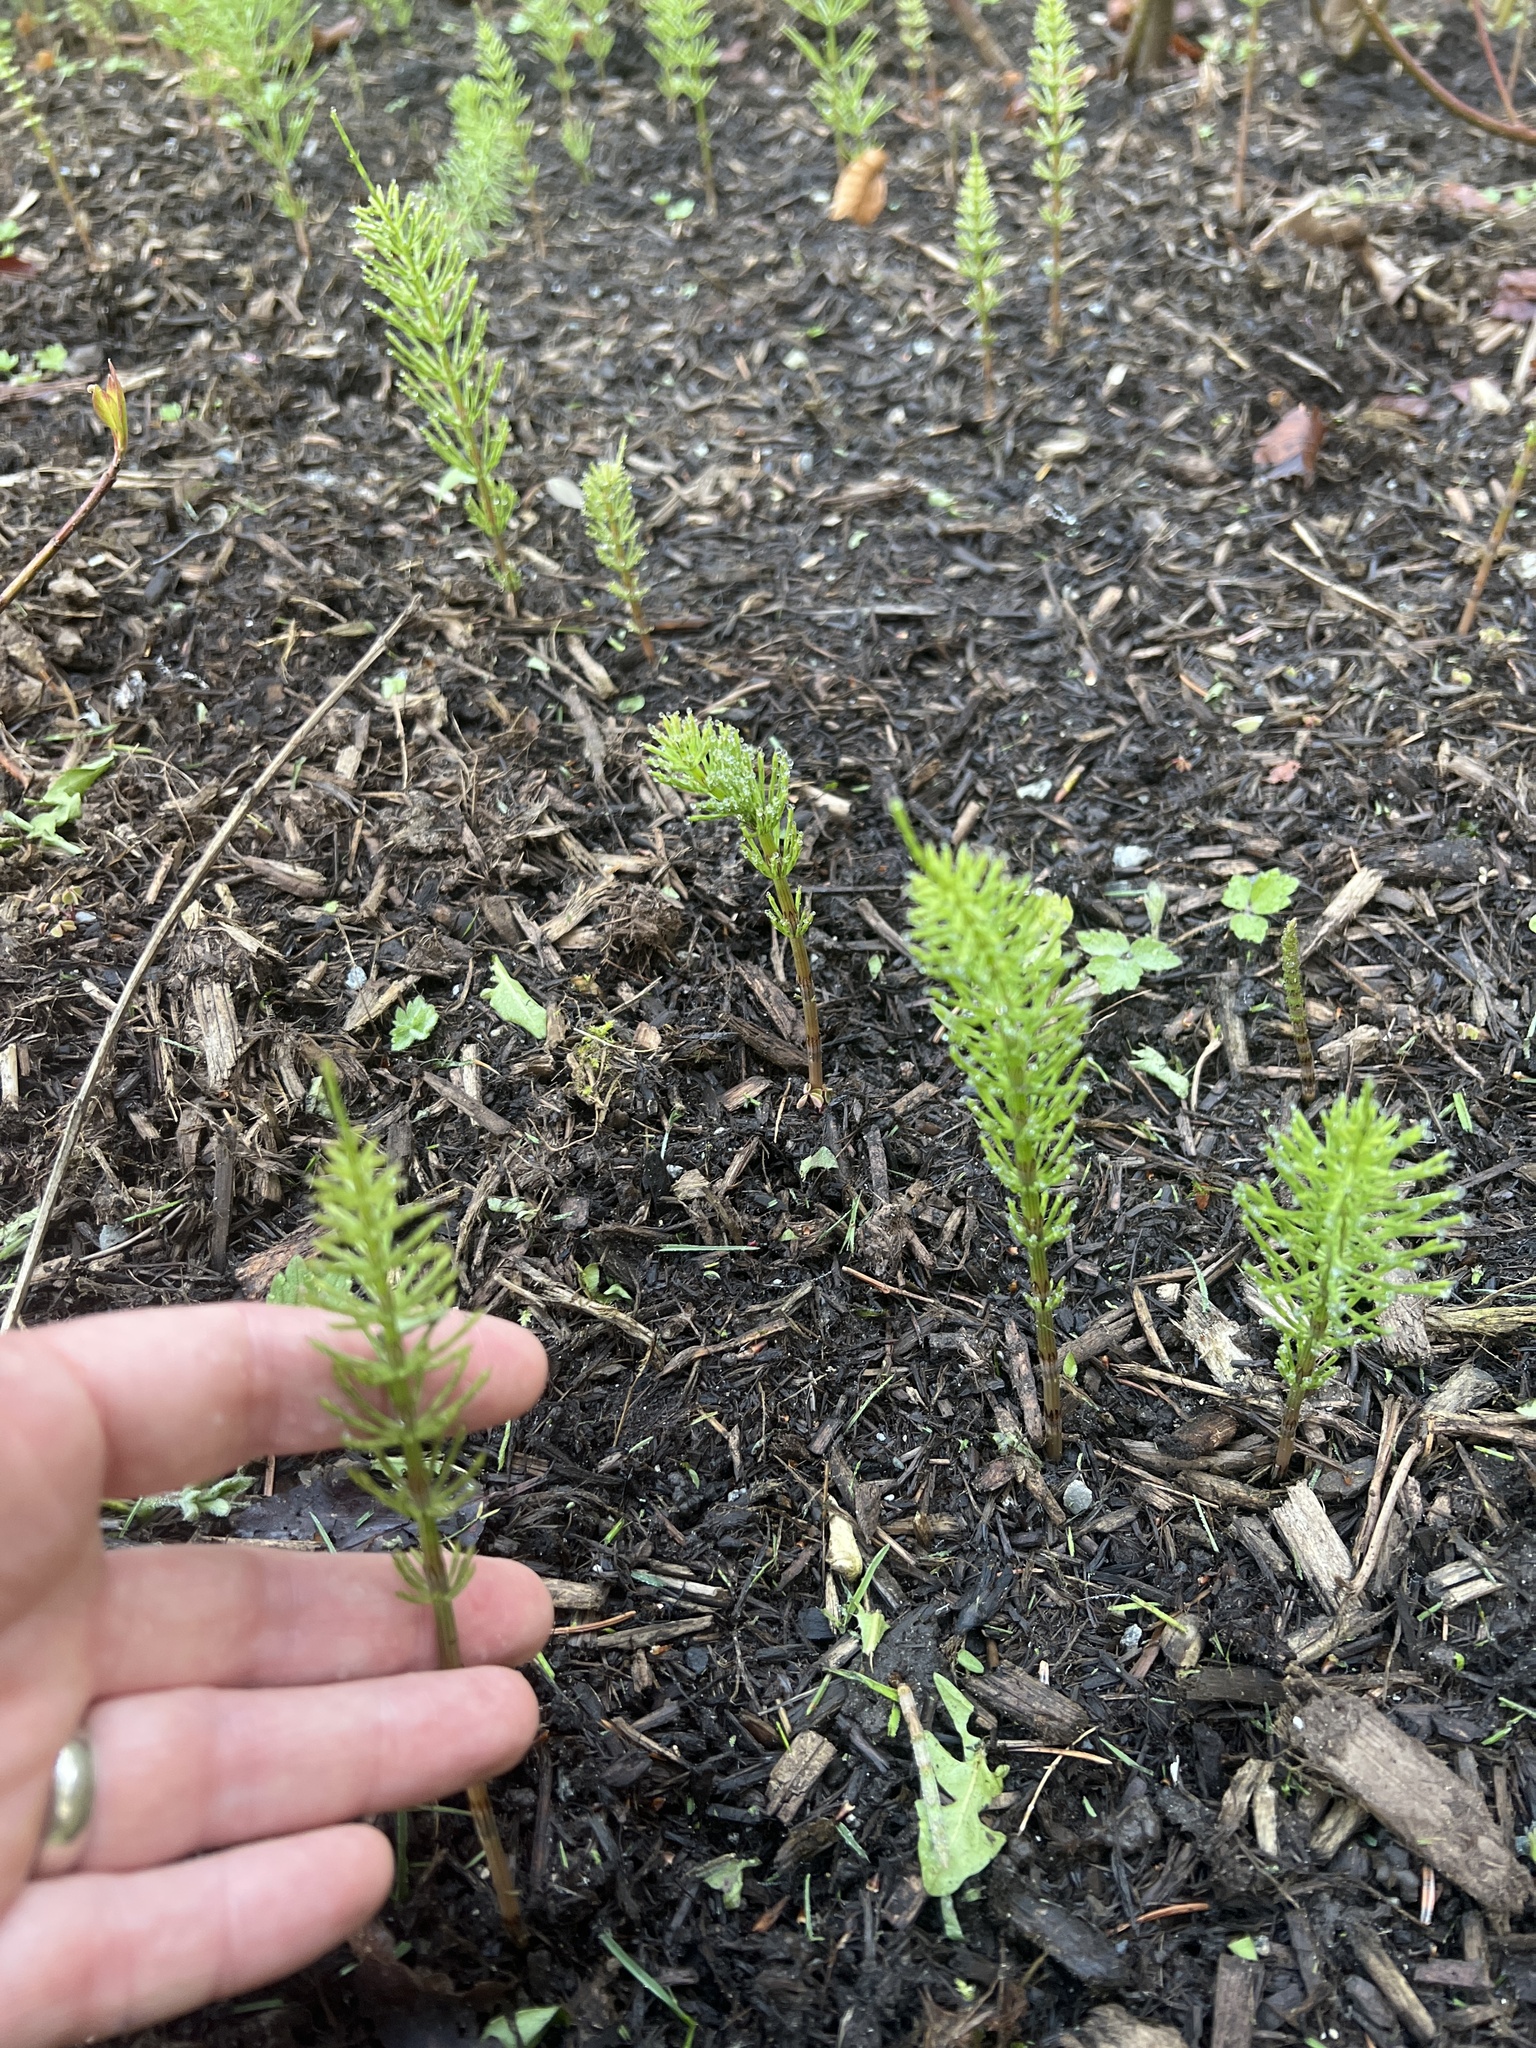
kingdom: Plantae
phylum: Tracheophyta
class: Polypodiopsida
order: Equisetales
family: Equisetaceae
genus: Equisetum
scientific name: Equisetum arvense
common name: Field horsetail
